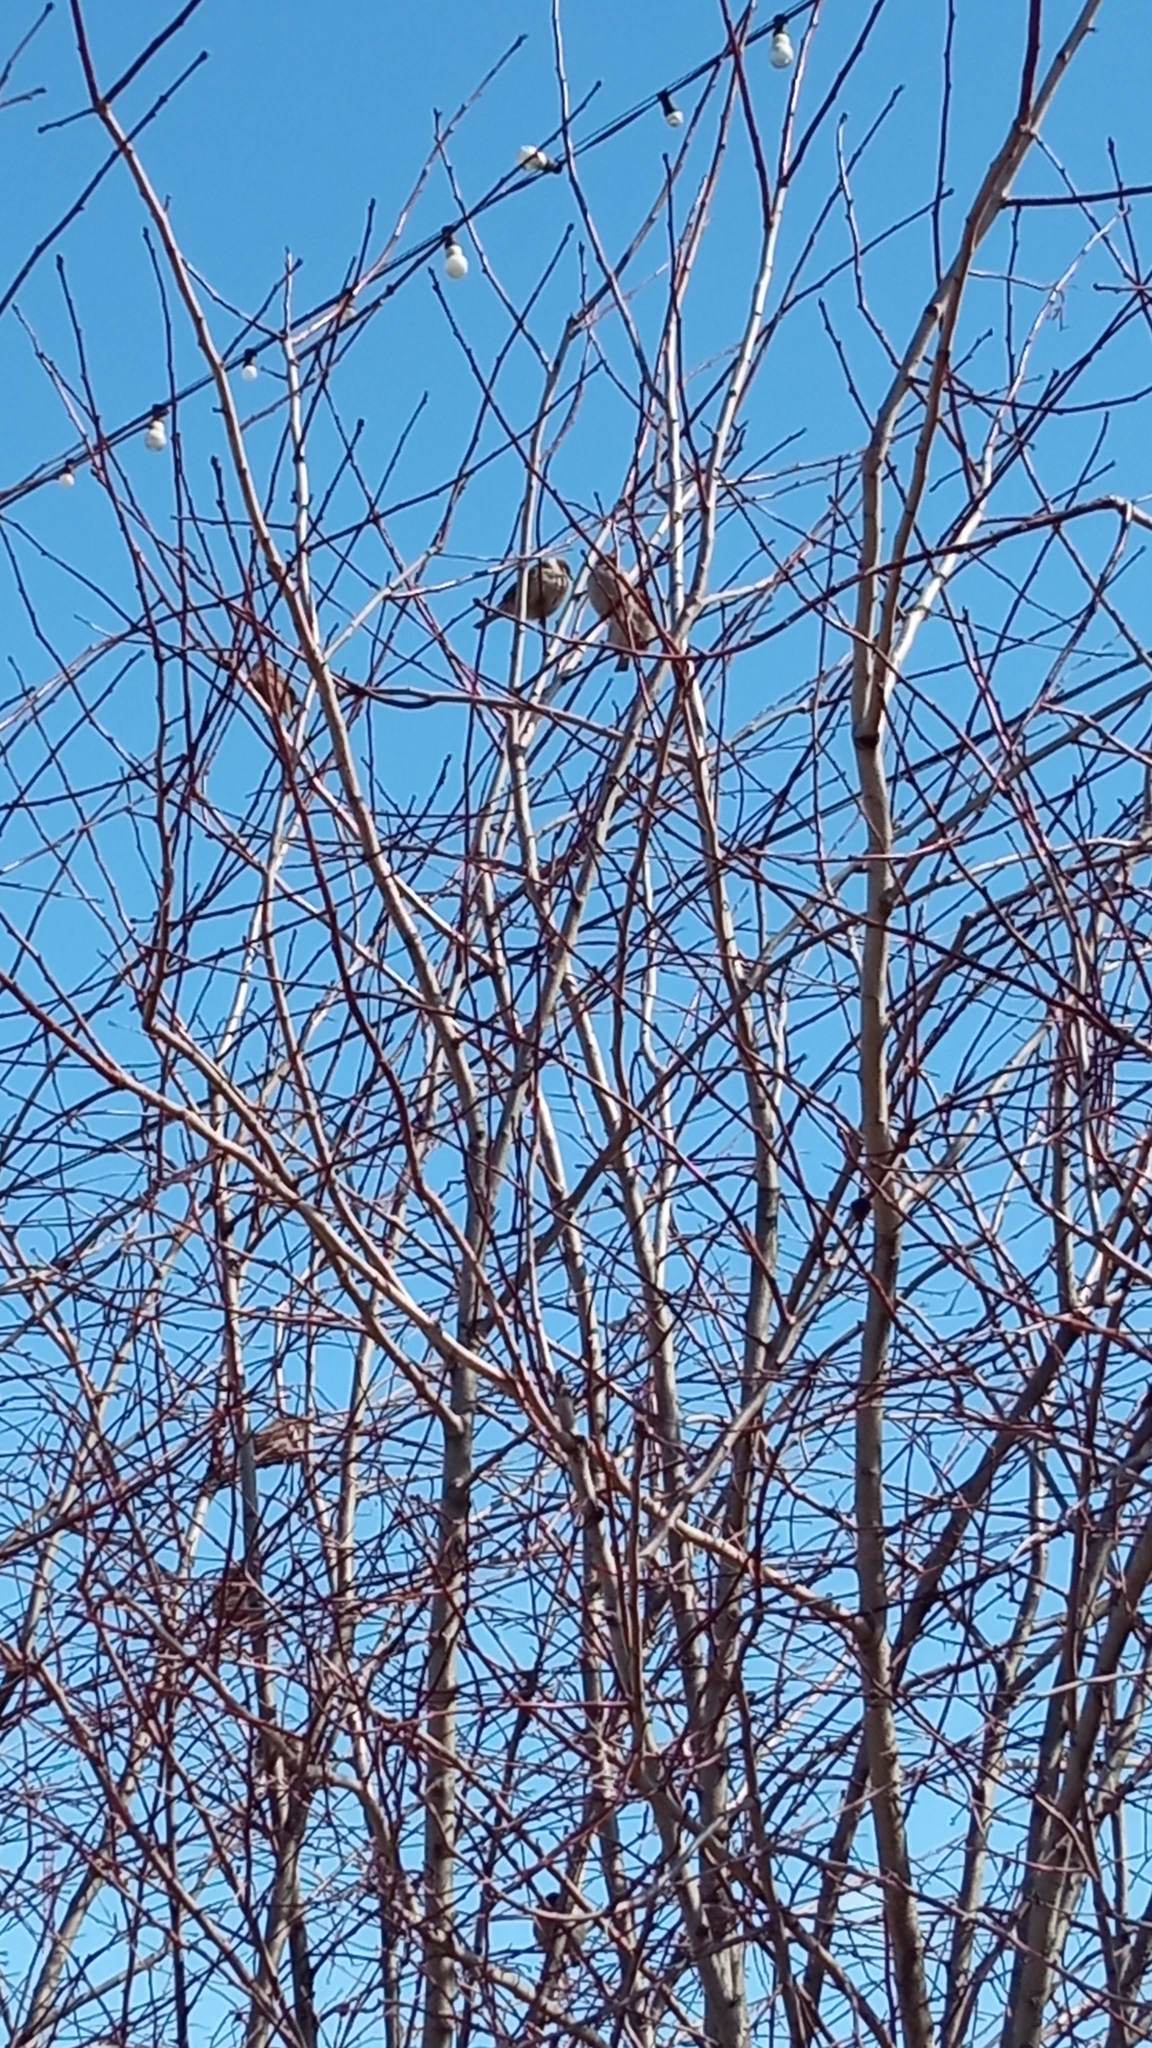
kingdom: Animalia
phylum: Chordata
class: Aves
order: Passeriformes
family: Passeridae
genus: Passer
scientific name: Passer montanus
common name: Eurasian tree sparrow
